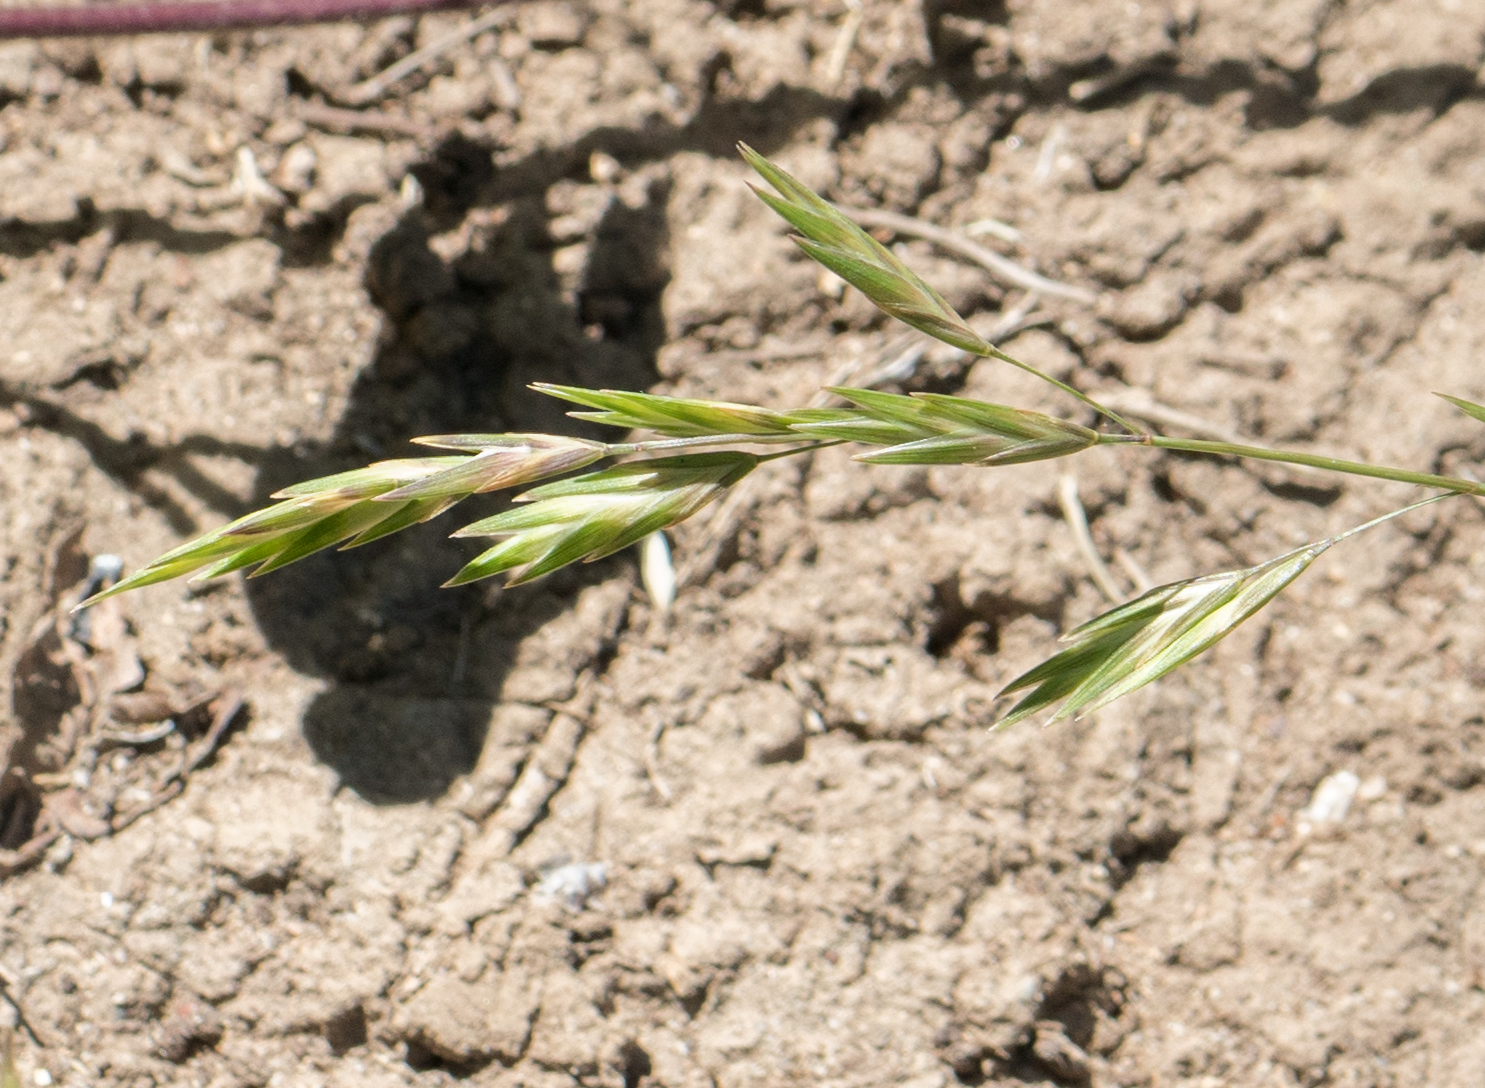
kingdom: Plantae
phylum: Tracheophyta
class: Liliopsida
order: Poales
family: Poaceae
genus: Bromus
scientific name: Bromus catharticus
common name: Rescuegrass
